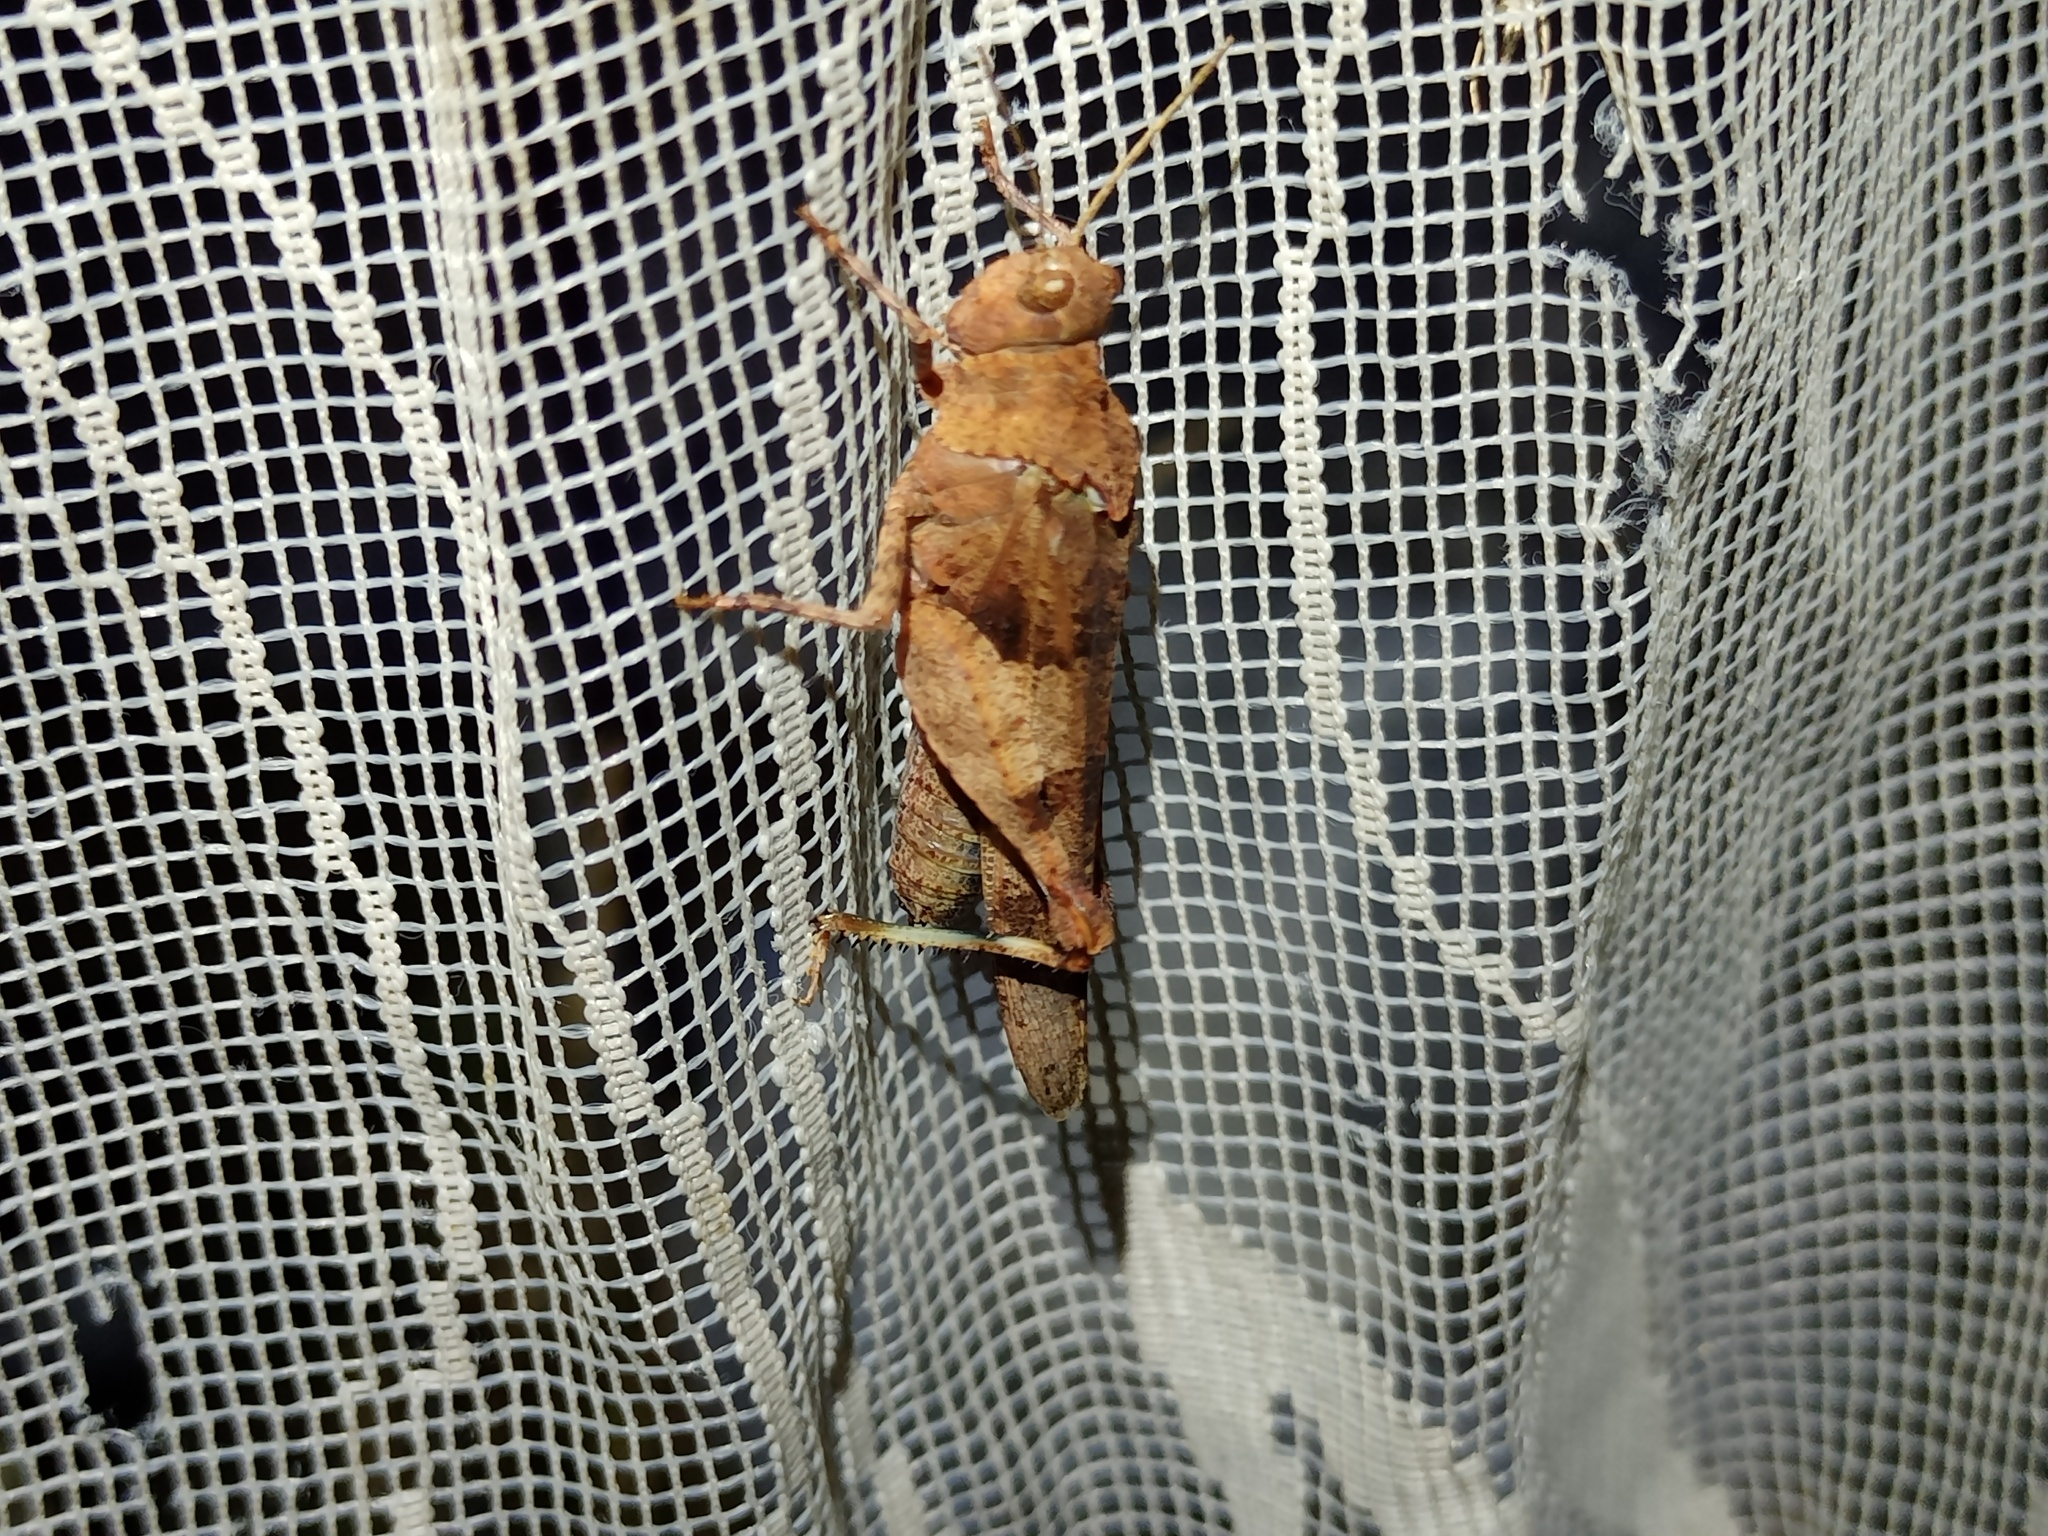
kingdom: Animalia
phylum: Arthropoda
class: Insecta
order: Orthoptera
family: Acrididae
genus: Oedipoda
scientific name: Oedipoda caerulescens
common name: Blue-winged grasshopper
